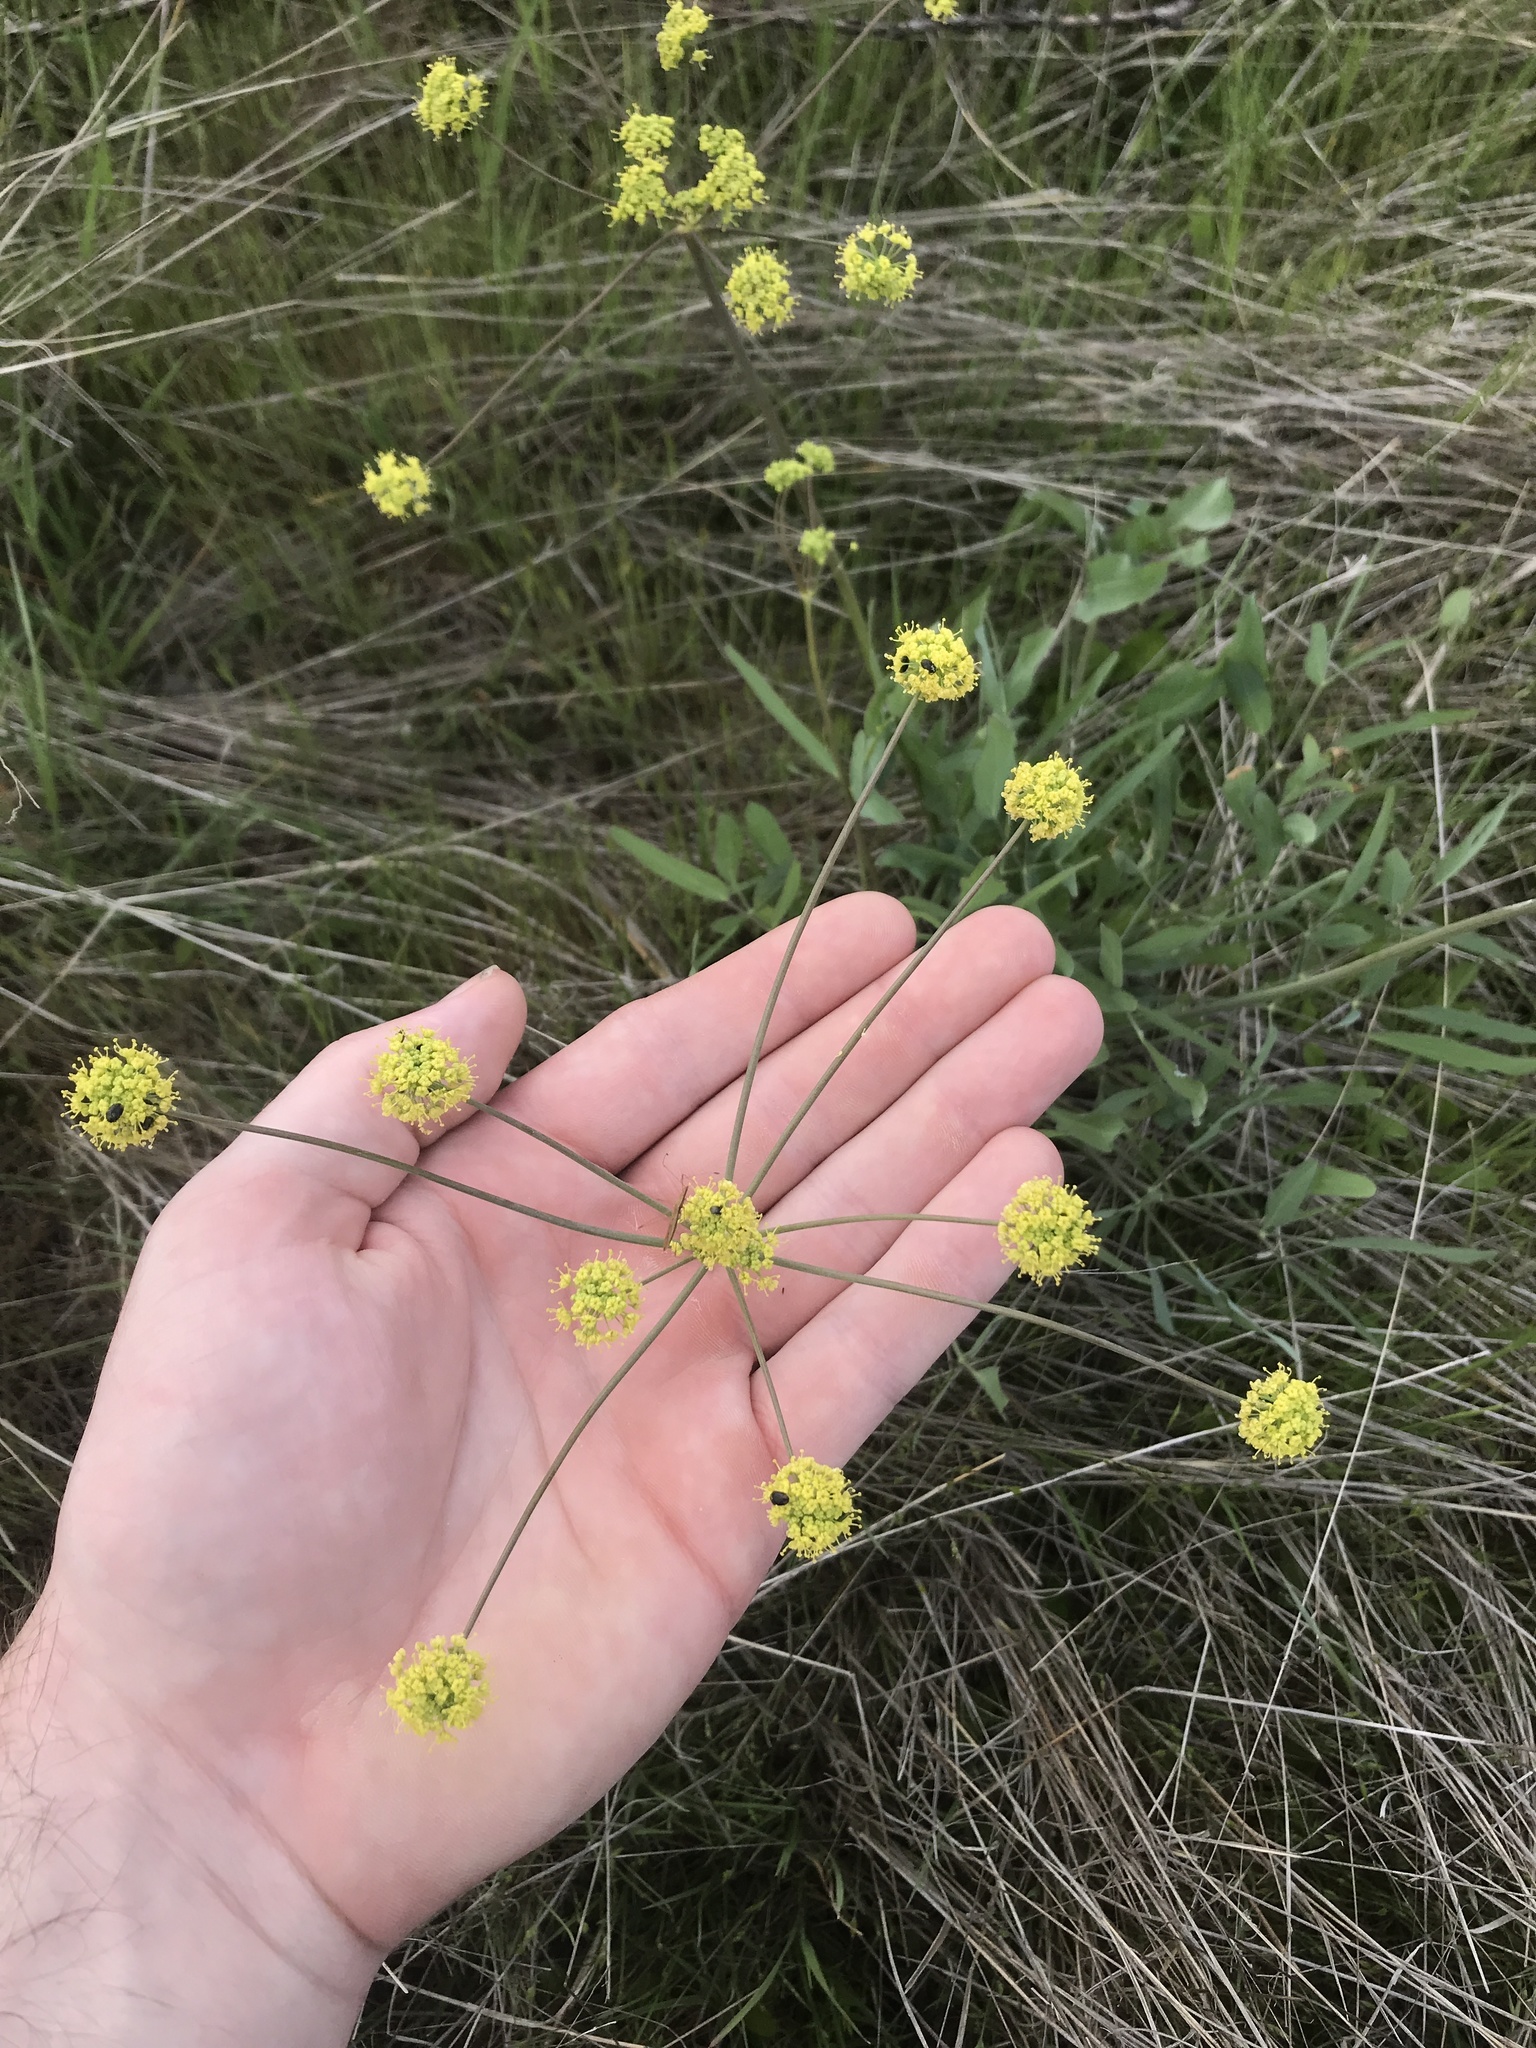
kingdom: Plantae
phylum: Tracheophyta
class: Magnoliopsida
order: Apiales
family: Apiaceae
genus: Lomatium
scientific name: Lomatium nudicaule
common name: Pestle lomatium
